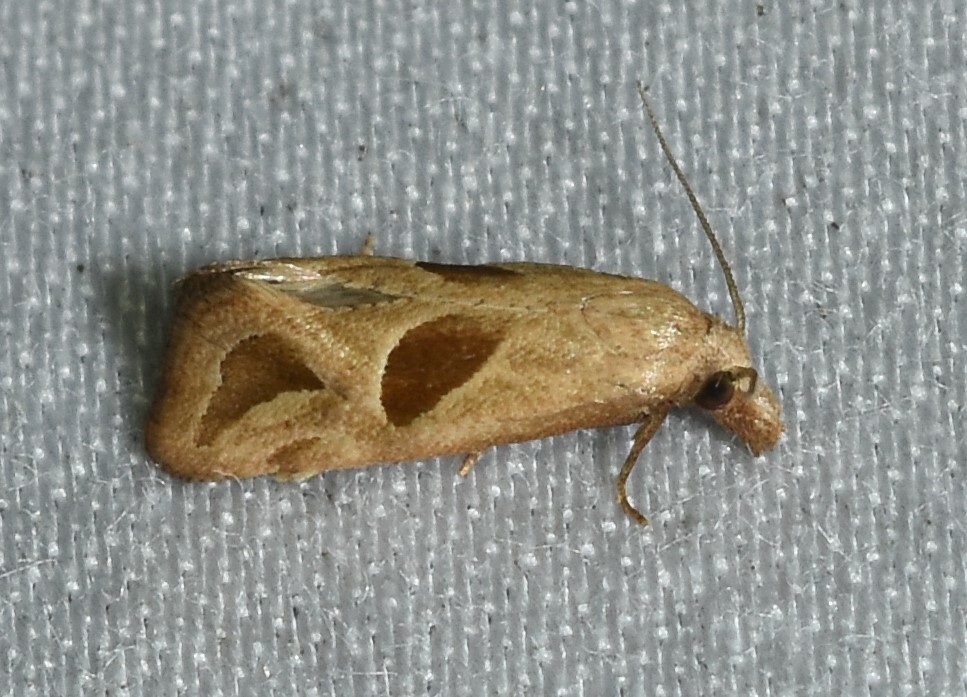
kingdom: Animalia
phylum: Arthropoda
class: Insecta
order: Lepidoptera
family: Tortricidae
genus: Eugnosta
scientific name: Eugnosta bimaculana
